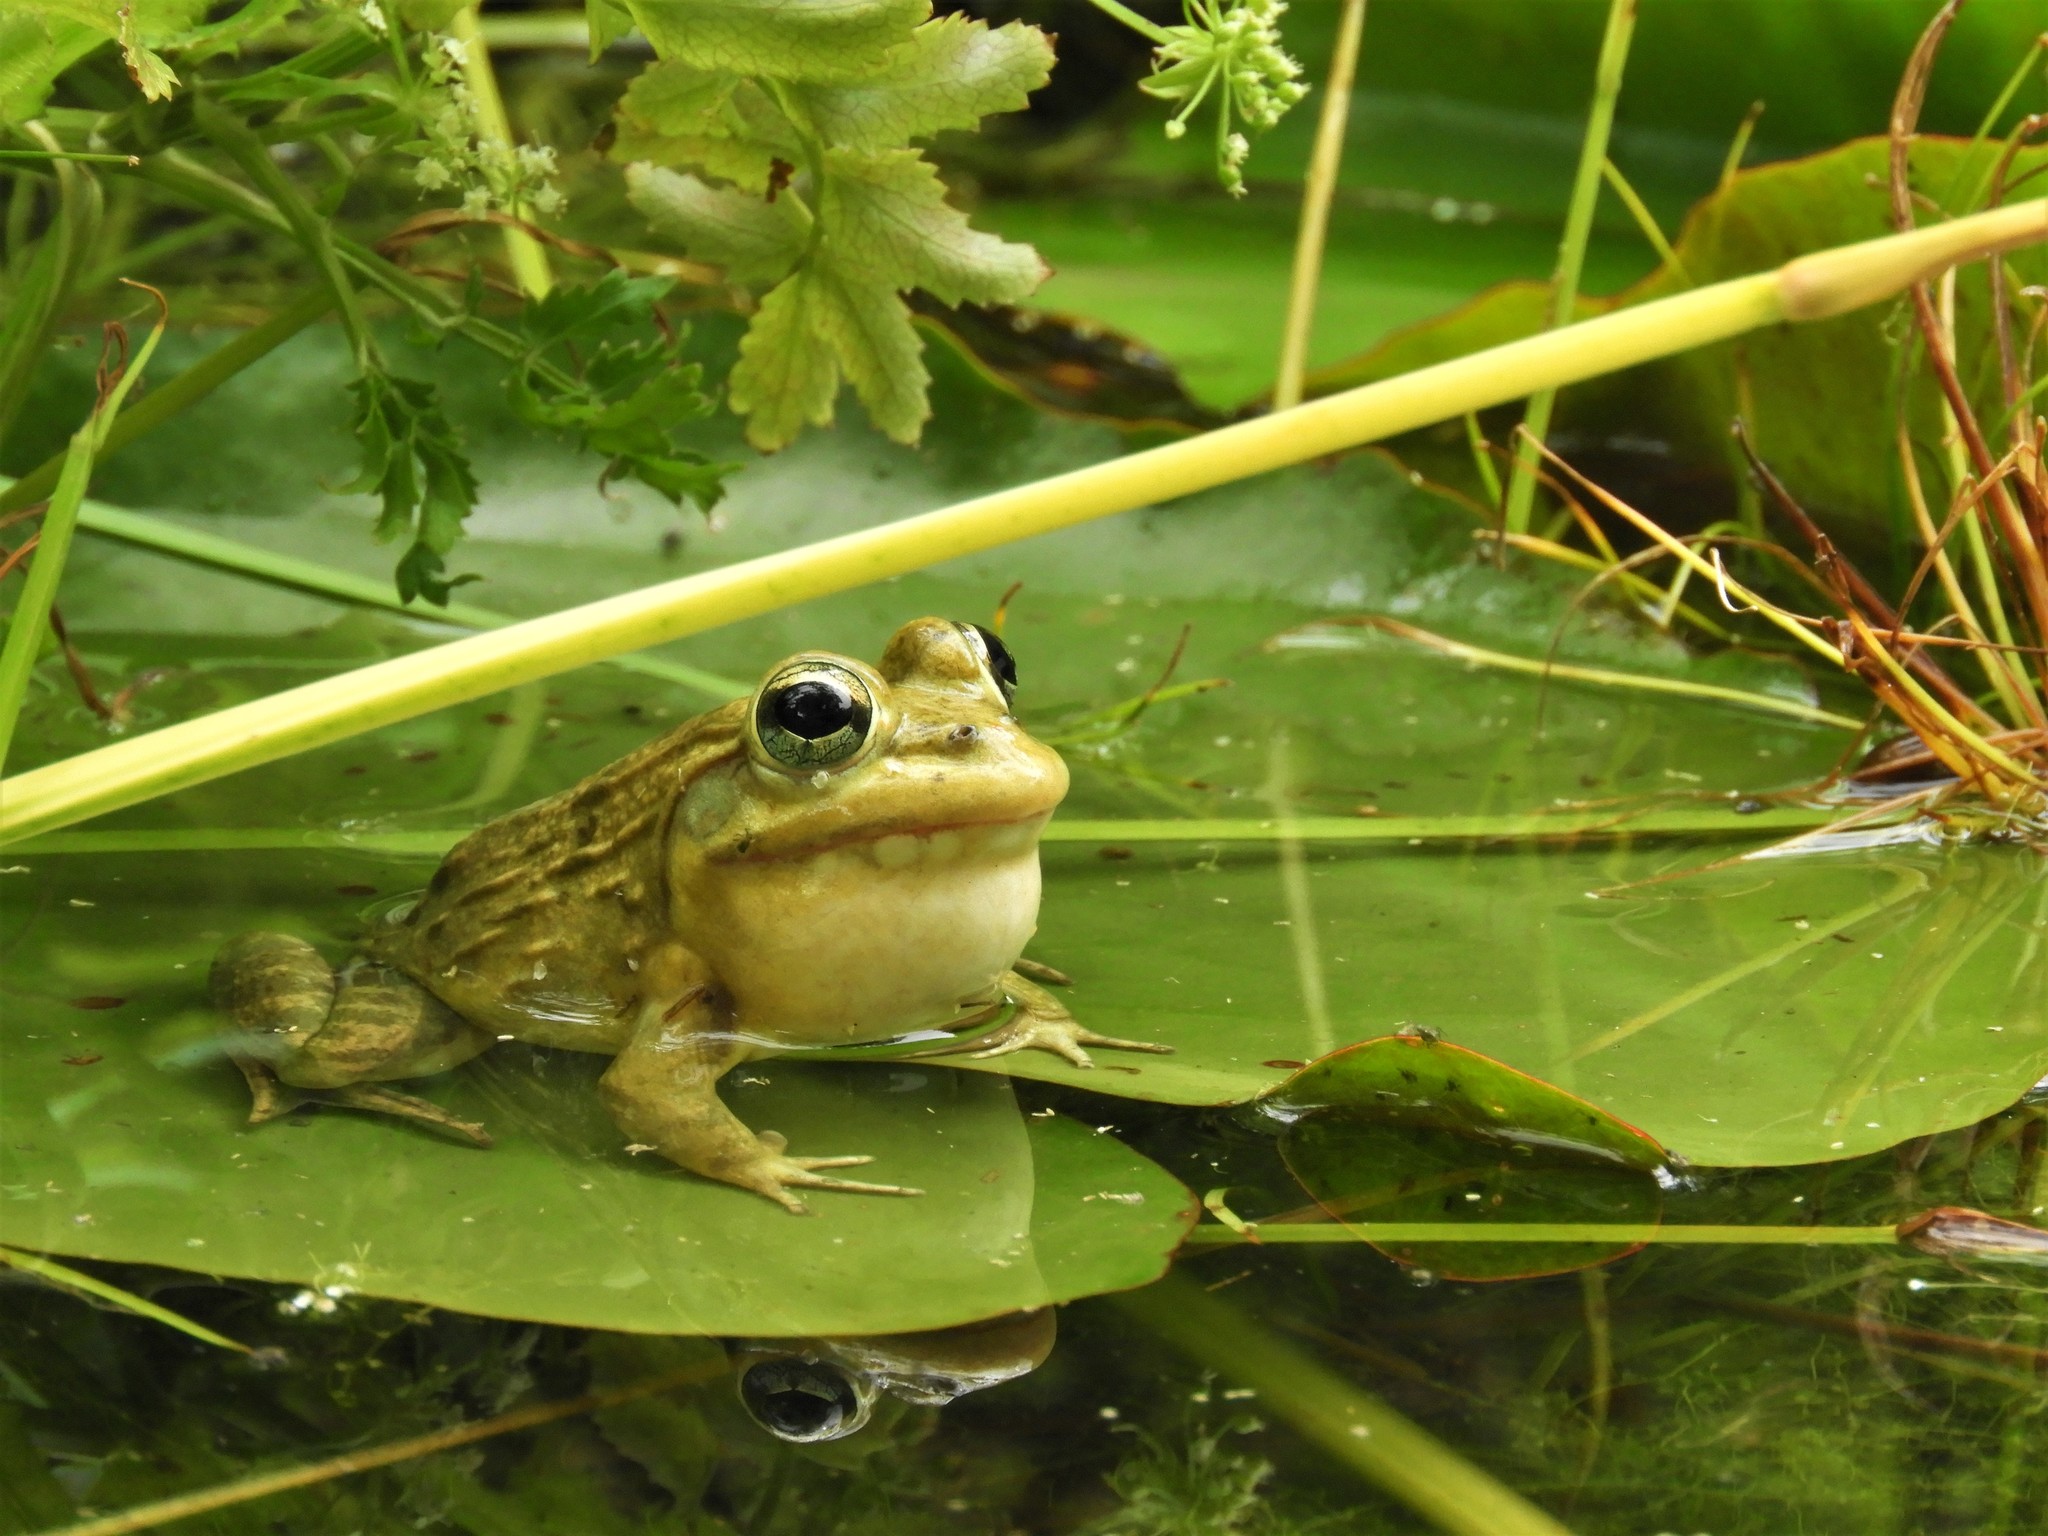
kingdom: Animalia
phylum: Chordata
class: Amphibia
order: Anura
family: Pyxicephalidae
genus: Amietia
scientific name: Amietia fuscigula
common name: Cape rana
